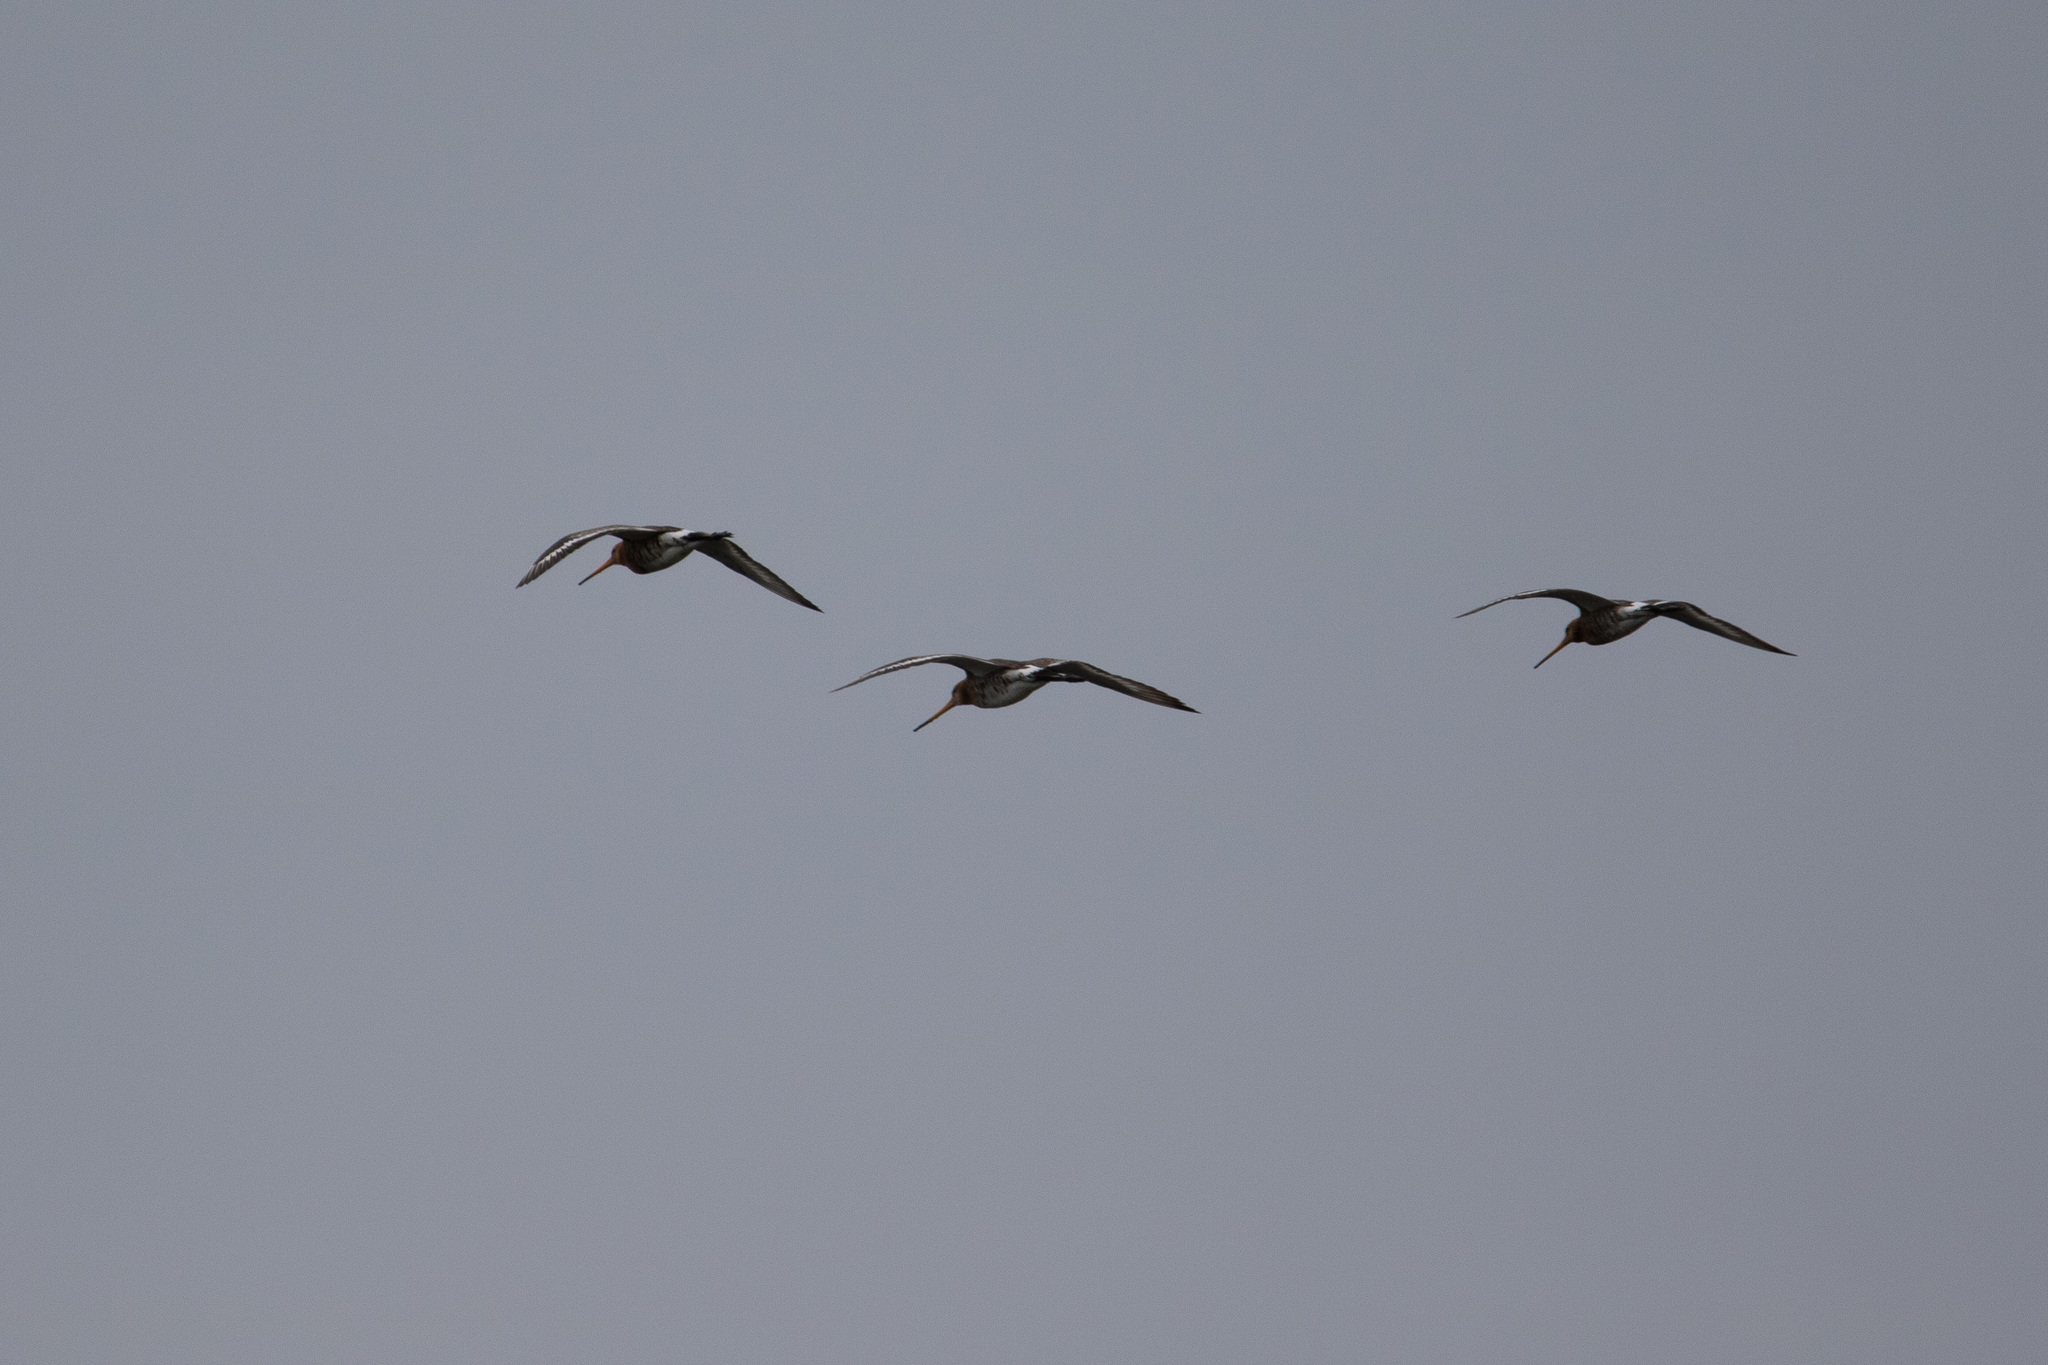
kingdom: Animalia
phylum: Chordata
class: Aves
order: Charadriiformes
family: Scolopacidae
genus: Limosa
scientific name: Limosa limosa
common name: Black-tailed godwit
